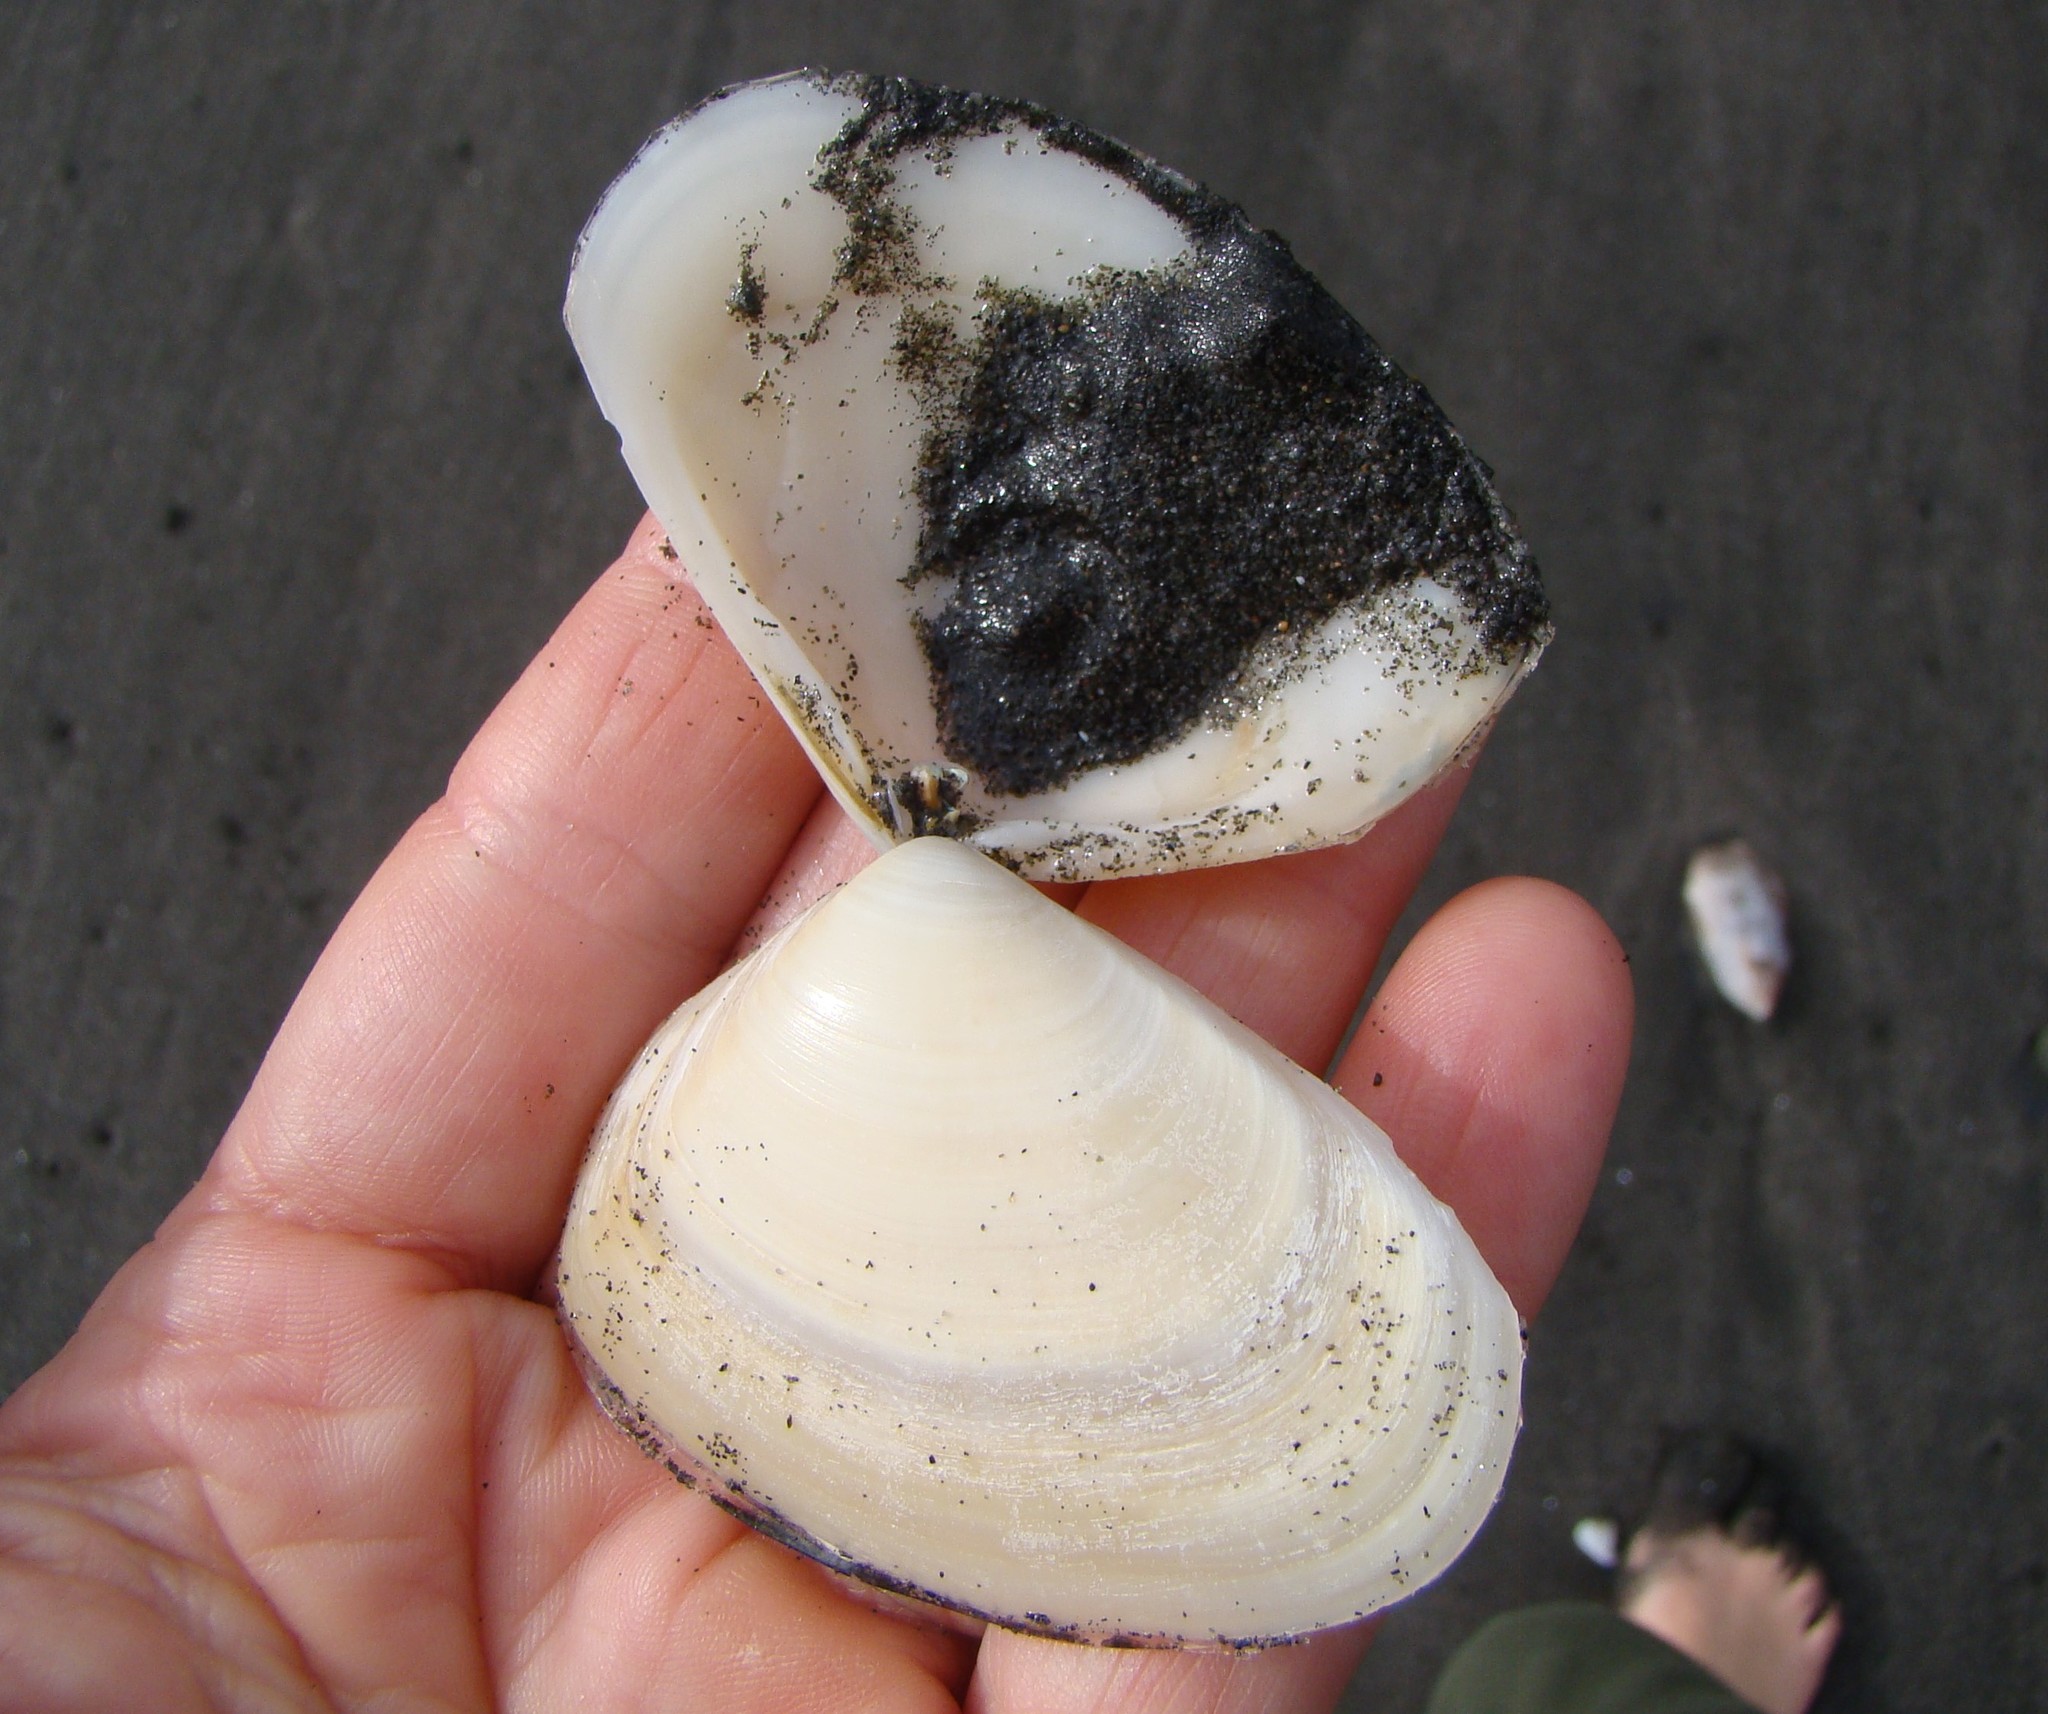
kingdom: Animalia
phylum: Mollusca
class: Bivalvia
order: Venerida
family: Mesodesmatidae
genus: Paphies
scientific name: Paphies donacina
